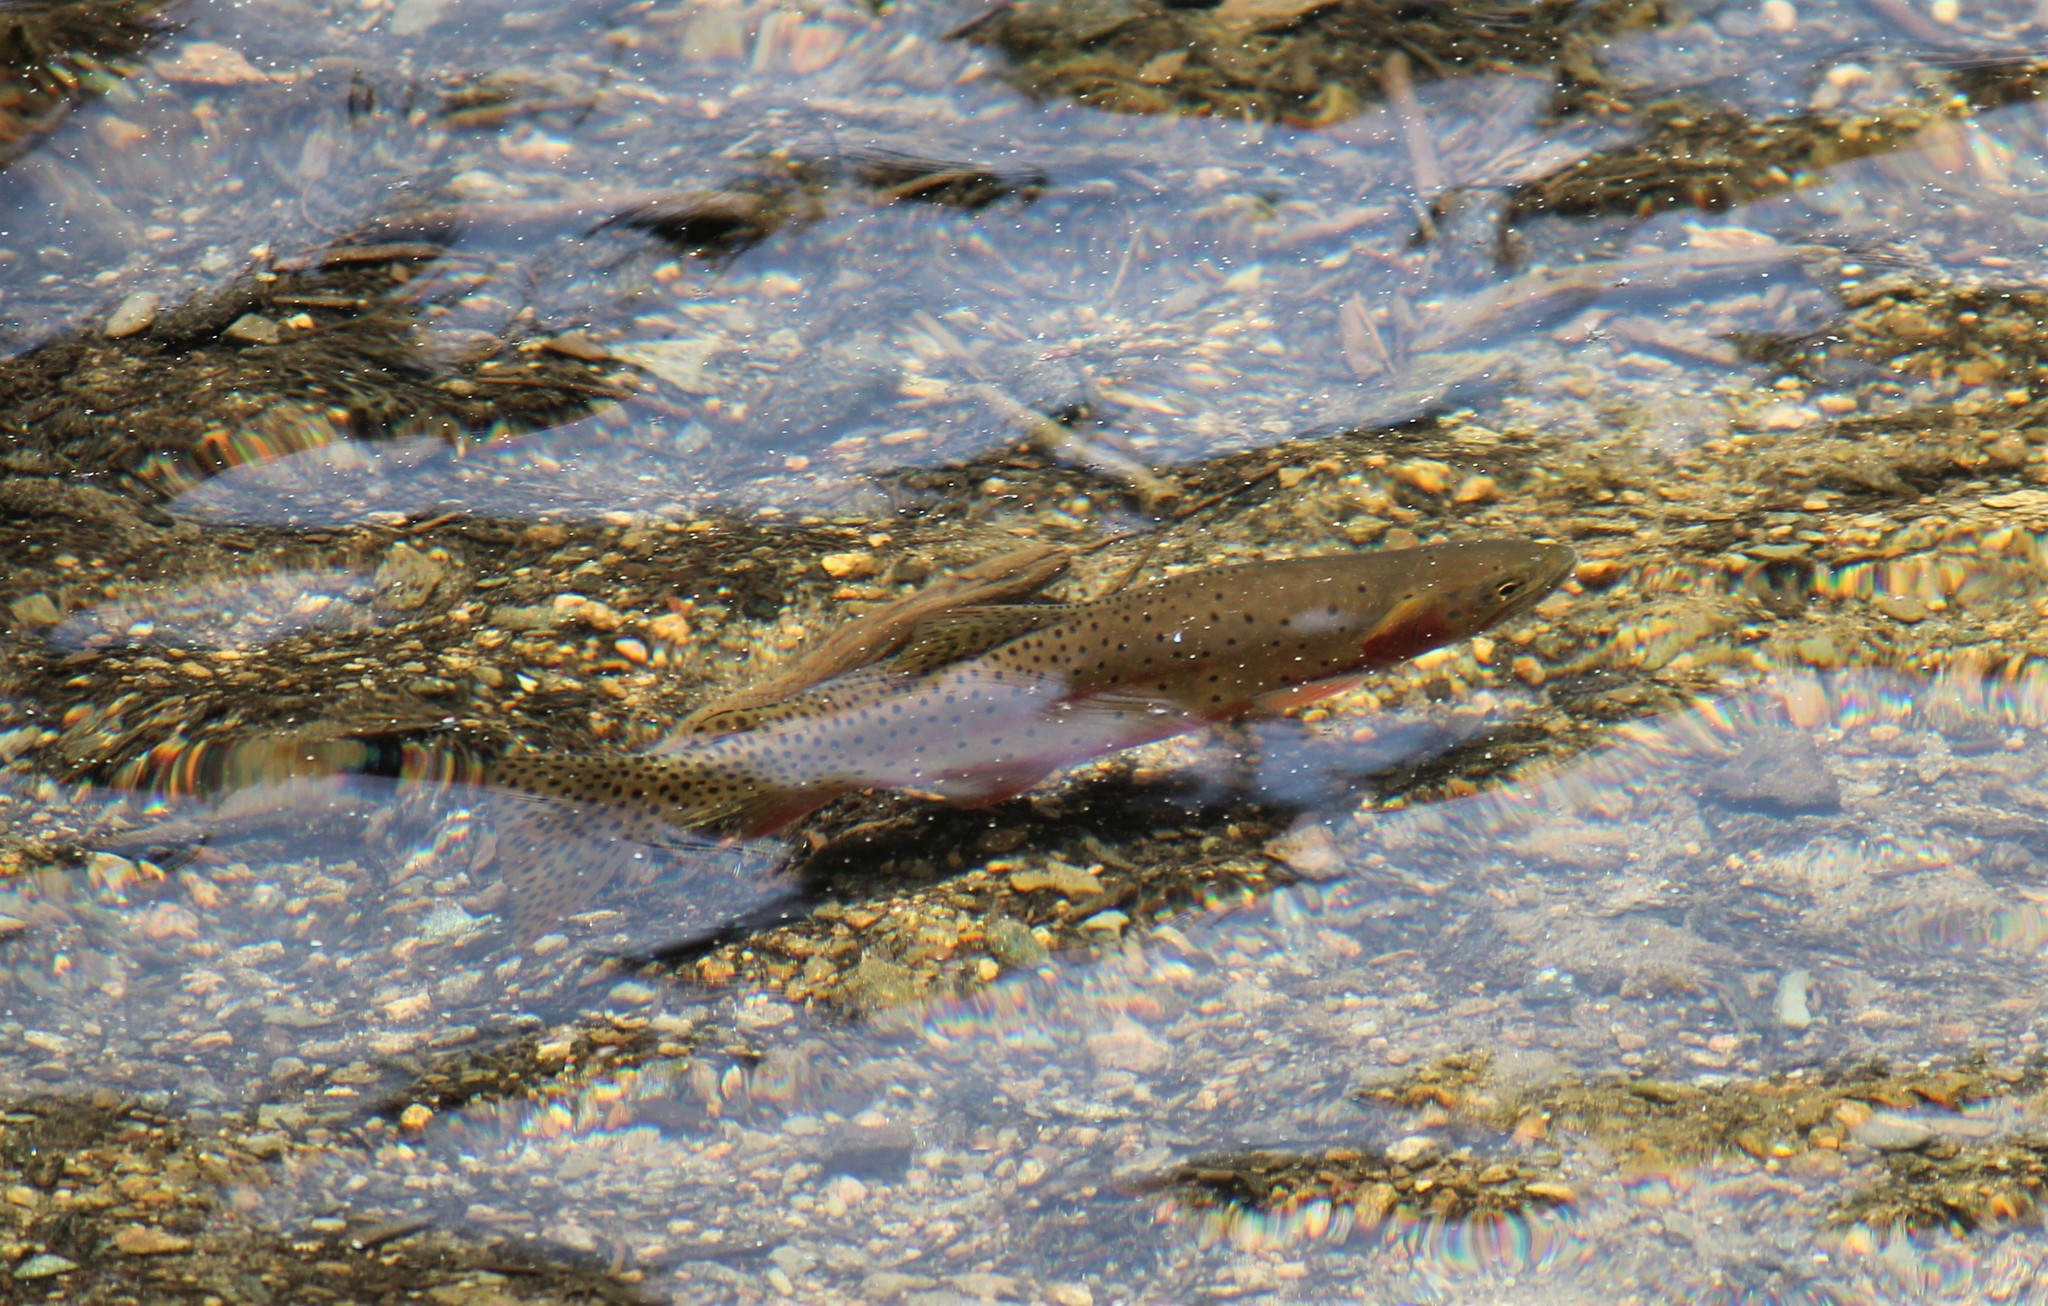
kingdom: Animalia
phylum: Chordata
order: Salmoniformes
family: Salmonidae
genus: Oncorhynchus
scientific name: Oncorhynchus virginalis
